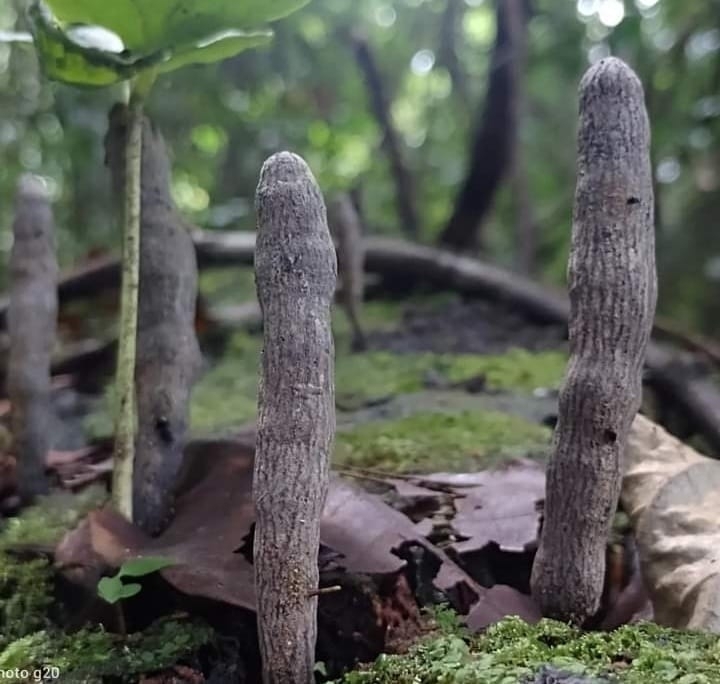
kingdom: Fungi
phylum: Ascomycota
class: Sordariomycetes
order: Xylariales
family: Xylariaceae
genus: Xylaria
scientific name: Xylaria grammica
